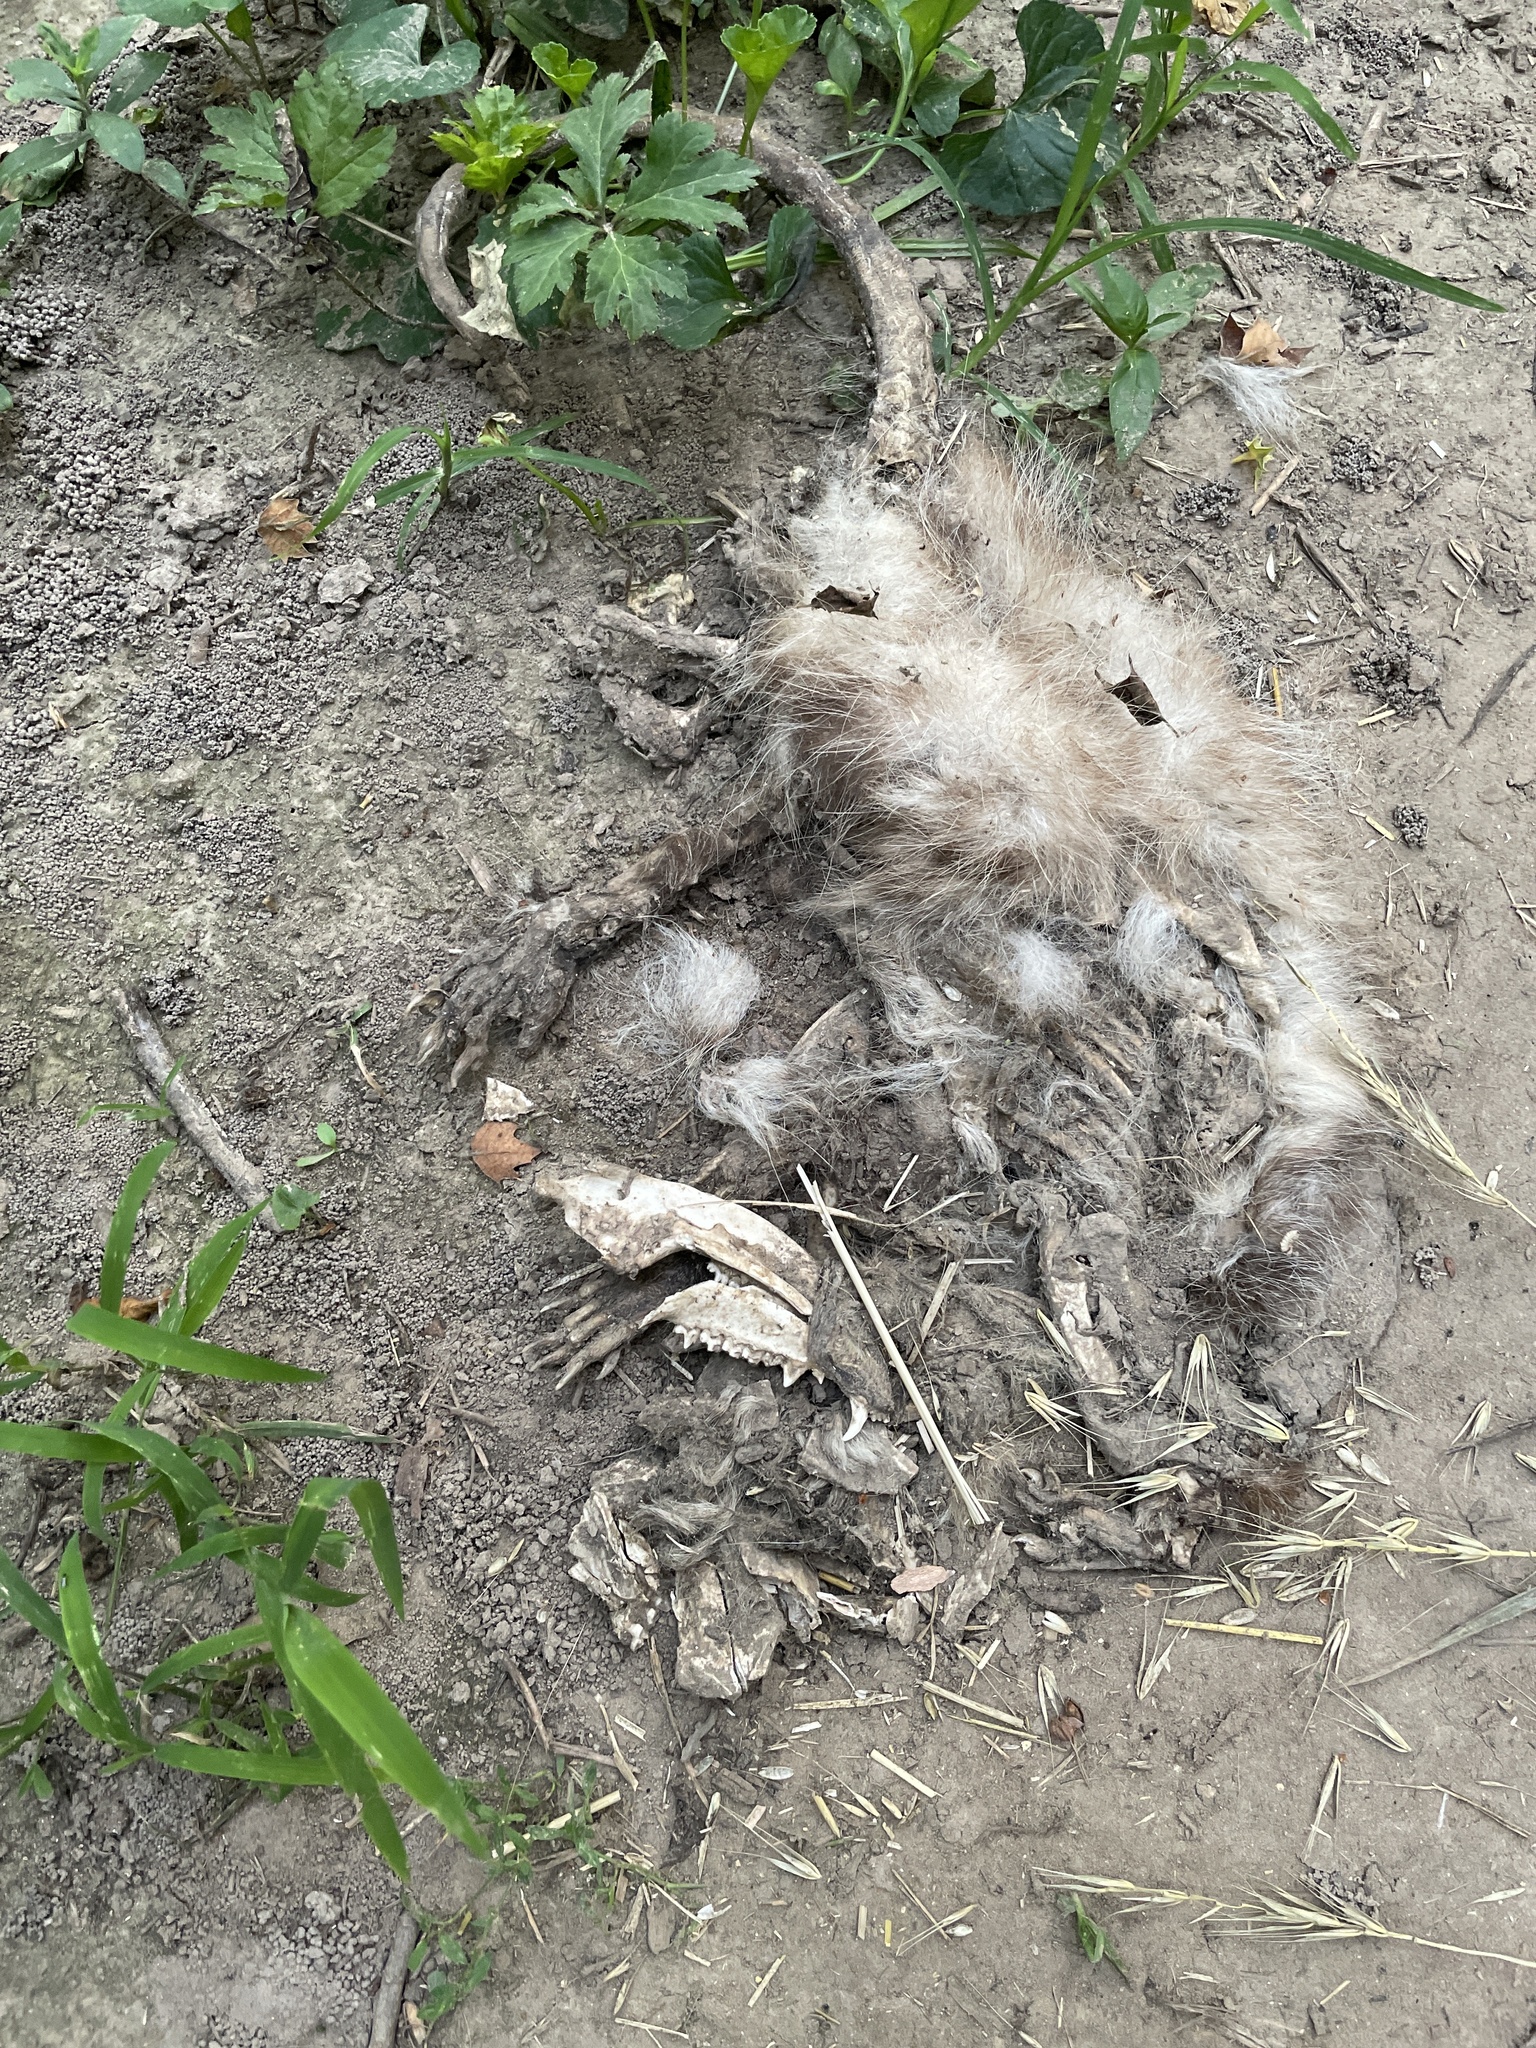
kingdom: Animalia
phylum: Chordata
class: Mammalia
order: Didelphimorphia
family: Didelphidae
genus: Didelphis
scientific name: Didelphis virginiana
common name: Virginia opossum
